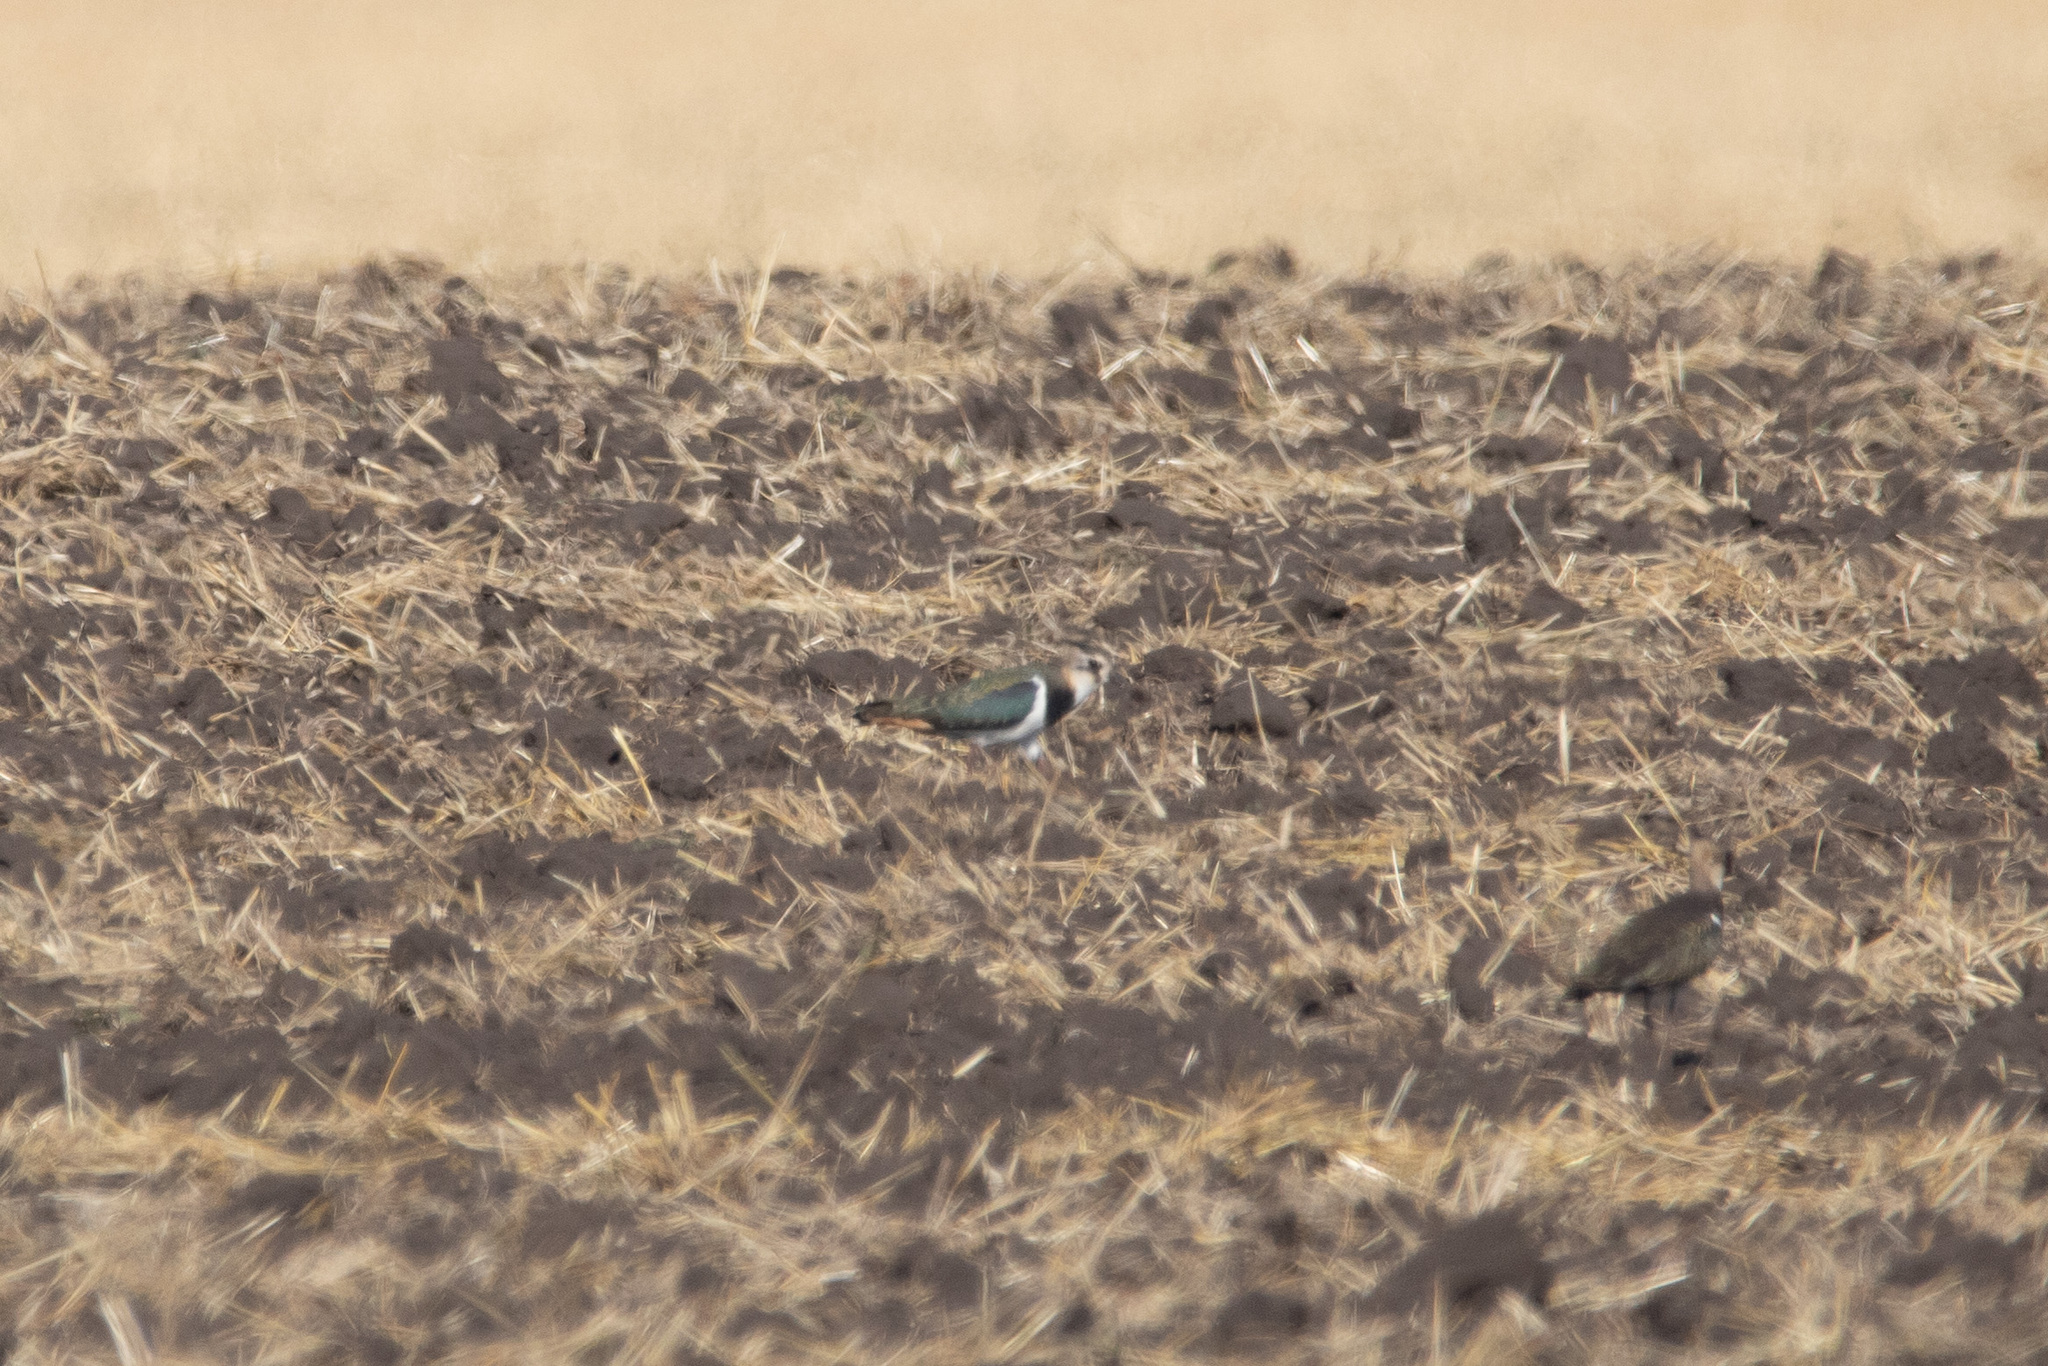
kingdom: Animalia
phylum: Chordata
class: Aves
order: Charadriiformes
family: Charadriidae
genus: Vanellus
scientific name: Vanellus vanellus
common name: Northern lapwing
